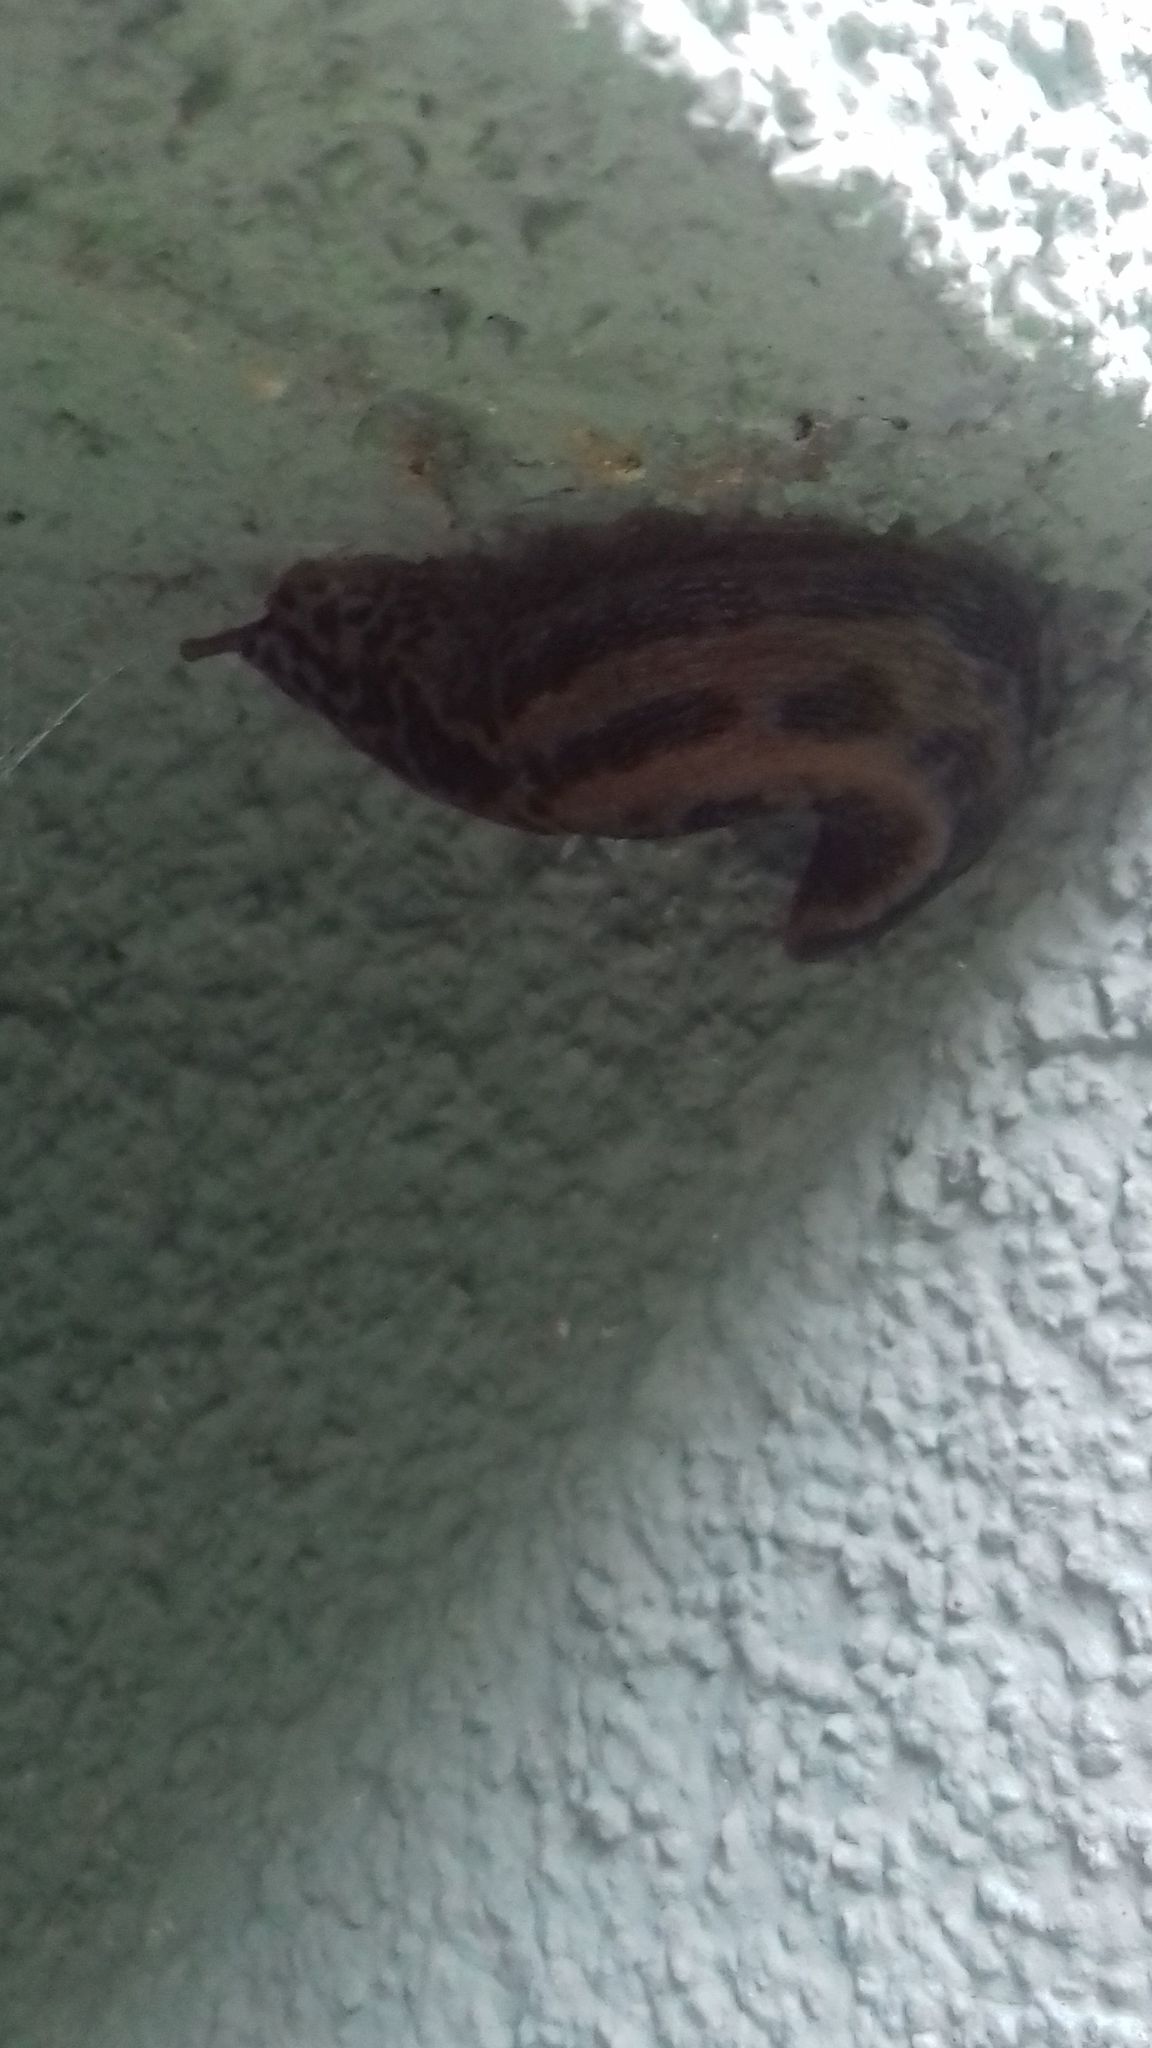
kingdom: Animalia
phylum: Mollusca
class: Gastropoda
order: Stylommatophora
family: Limacidae
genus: Limax
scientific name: Limax maximus
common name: Great grey slug
